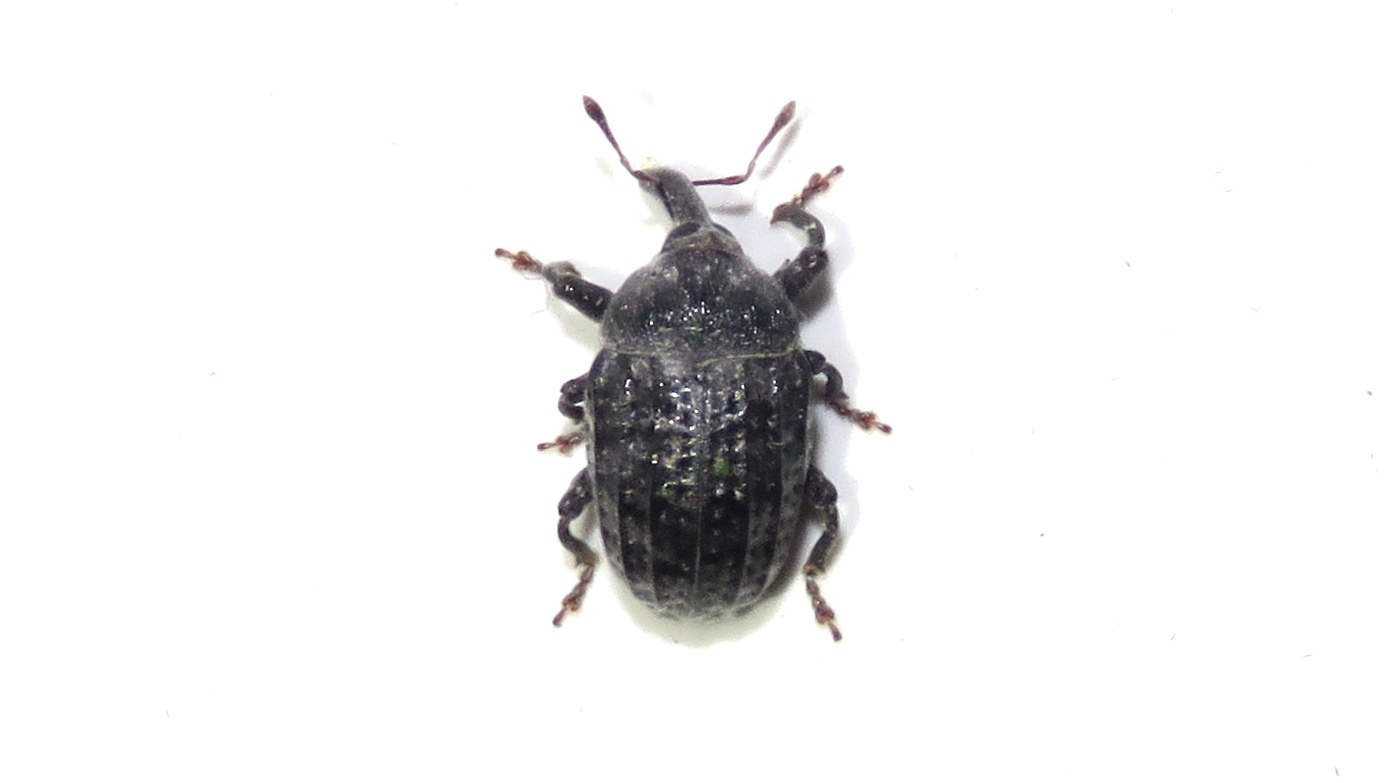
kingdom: Animalia
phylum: Arthropoda
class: Insecta
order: Coleoptera
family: Curculionidae
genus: Rhyssomatus
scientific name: Rhyssomatus lineaticollis
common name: Milkweed stem weevil
